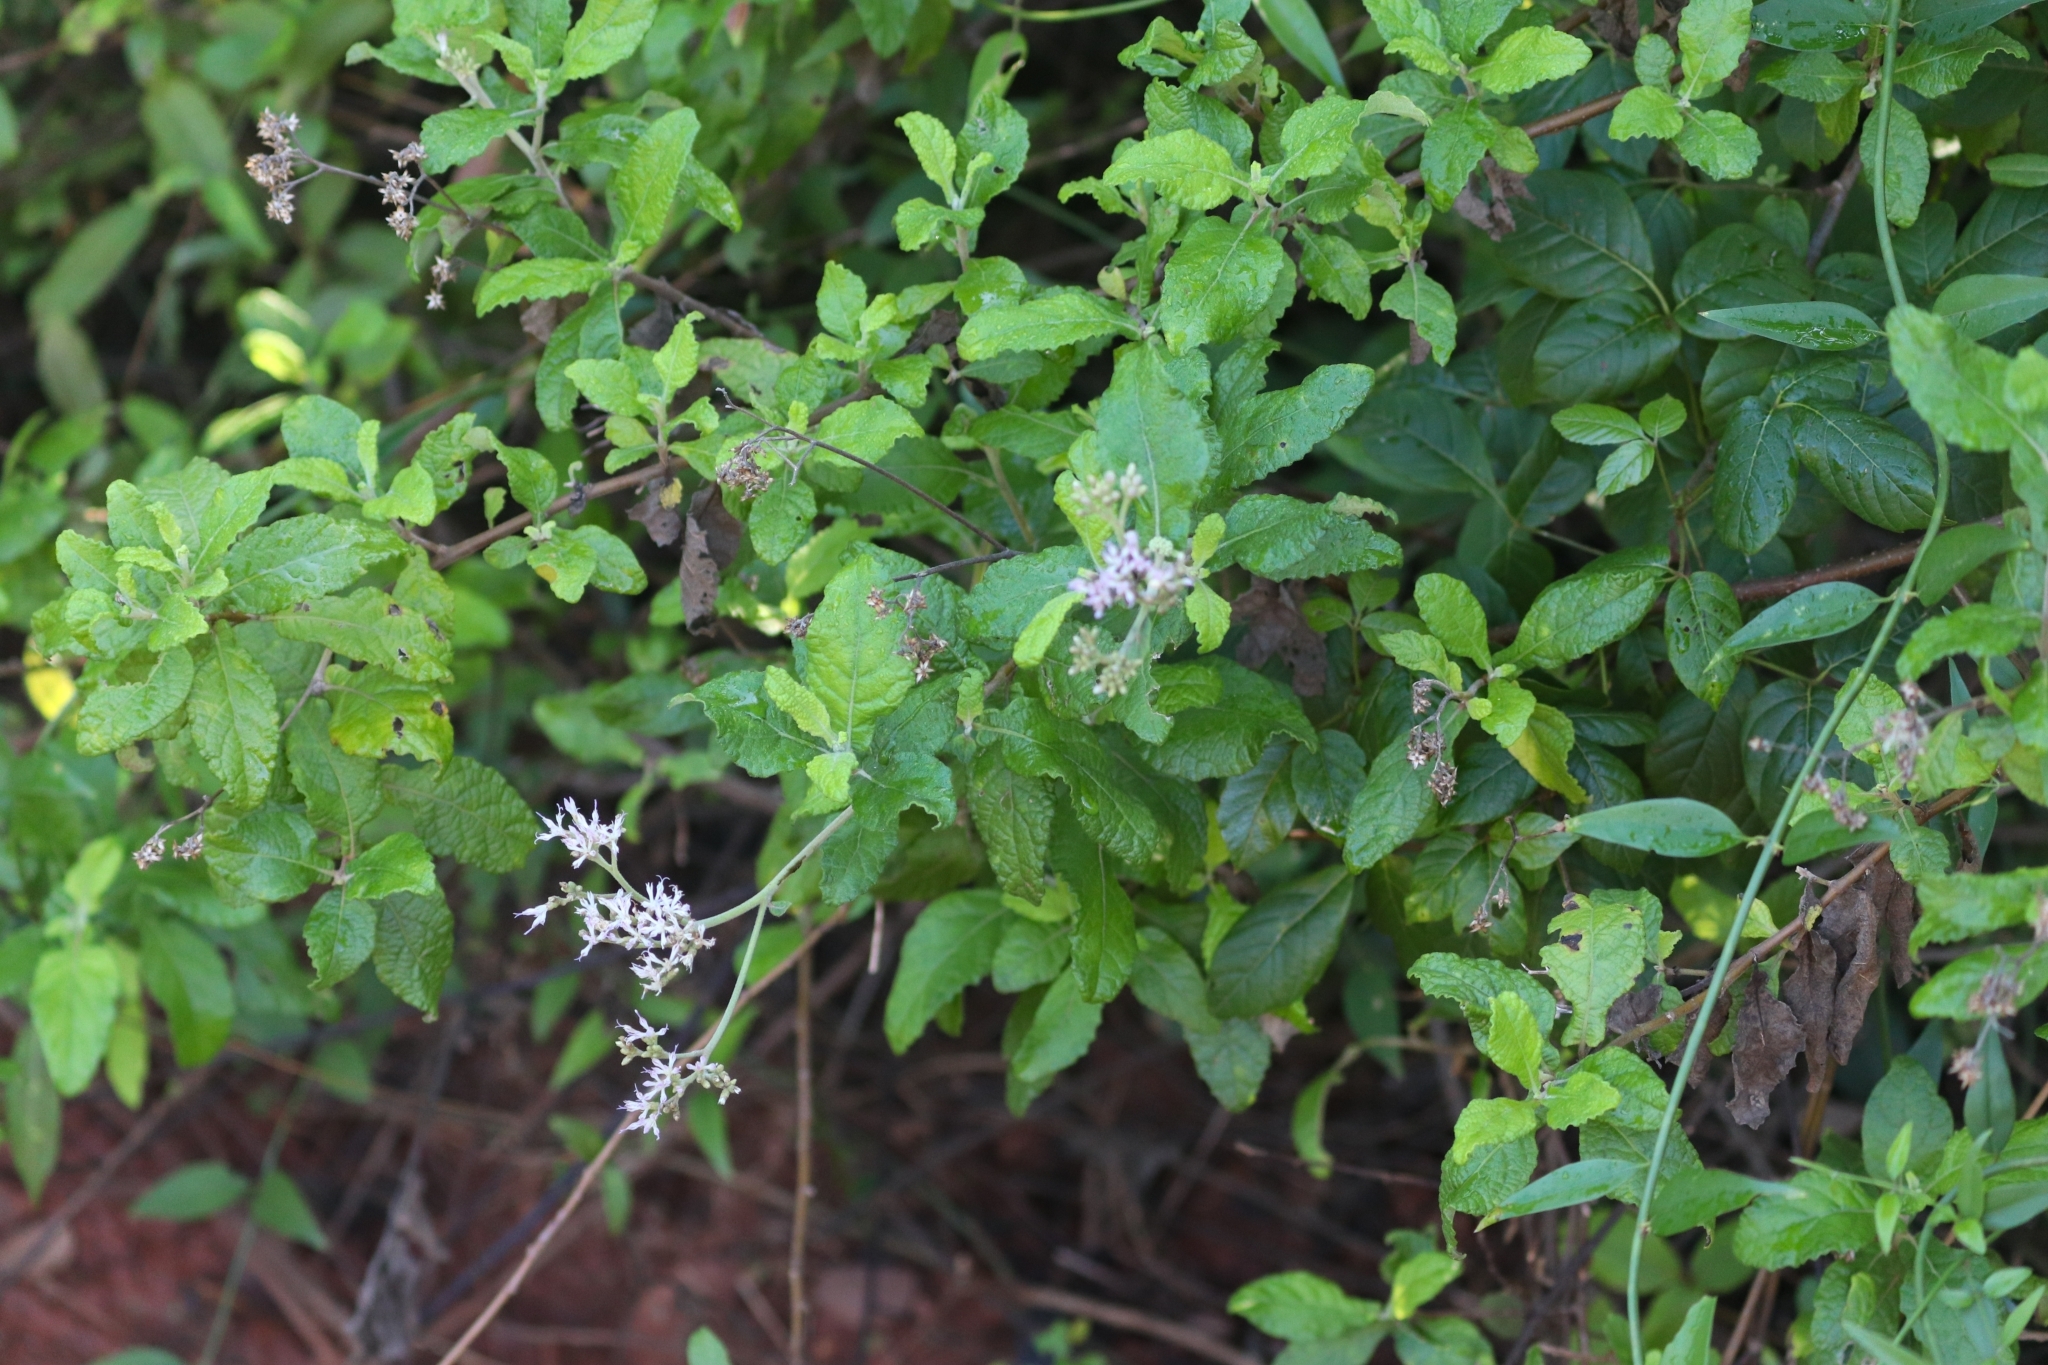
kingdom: Plantae
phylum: Tracheophyta
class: Magnoliopsida
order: Asterales
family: Asteraceae
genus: Jeffreycia
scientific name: Jeffreycia zeylanica
